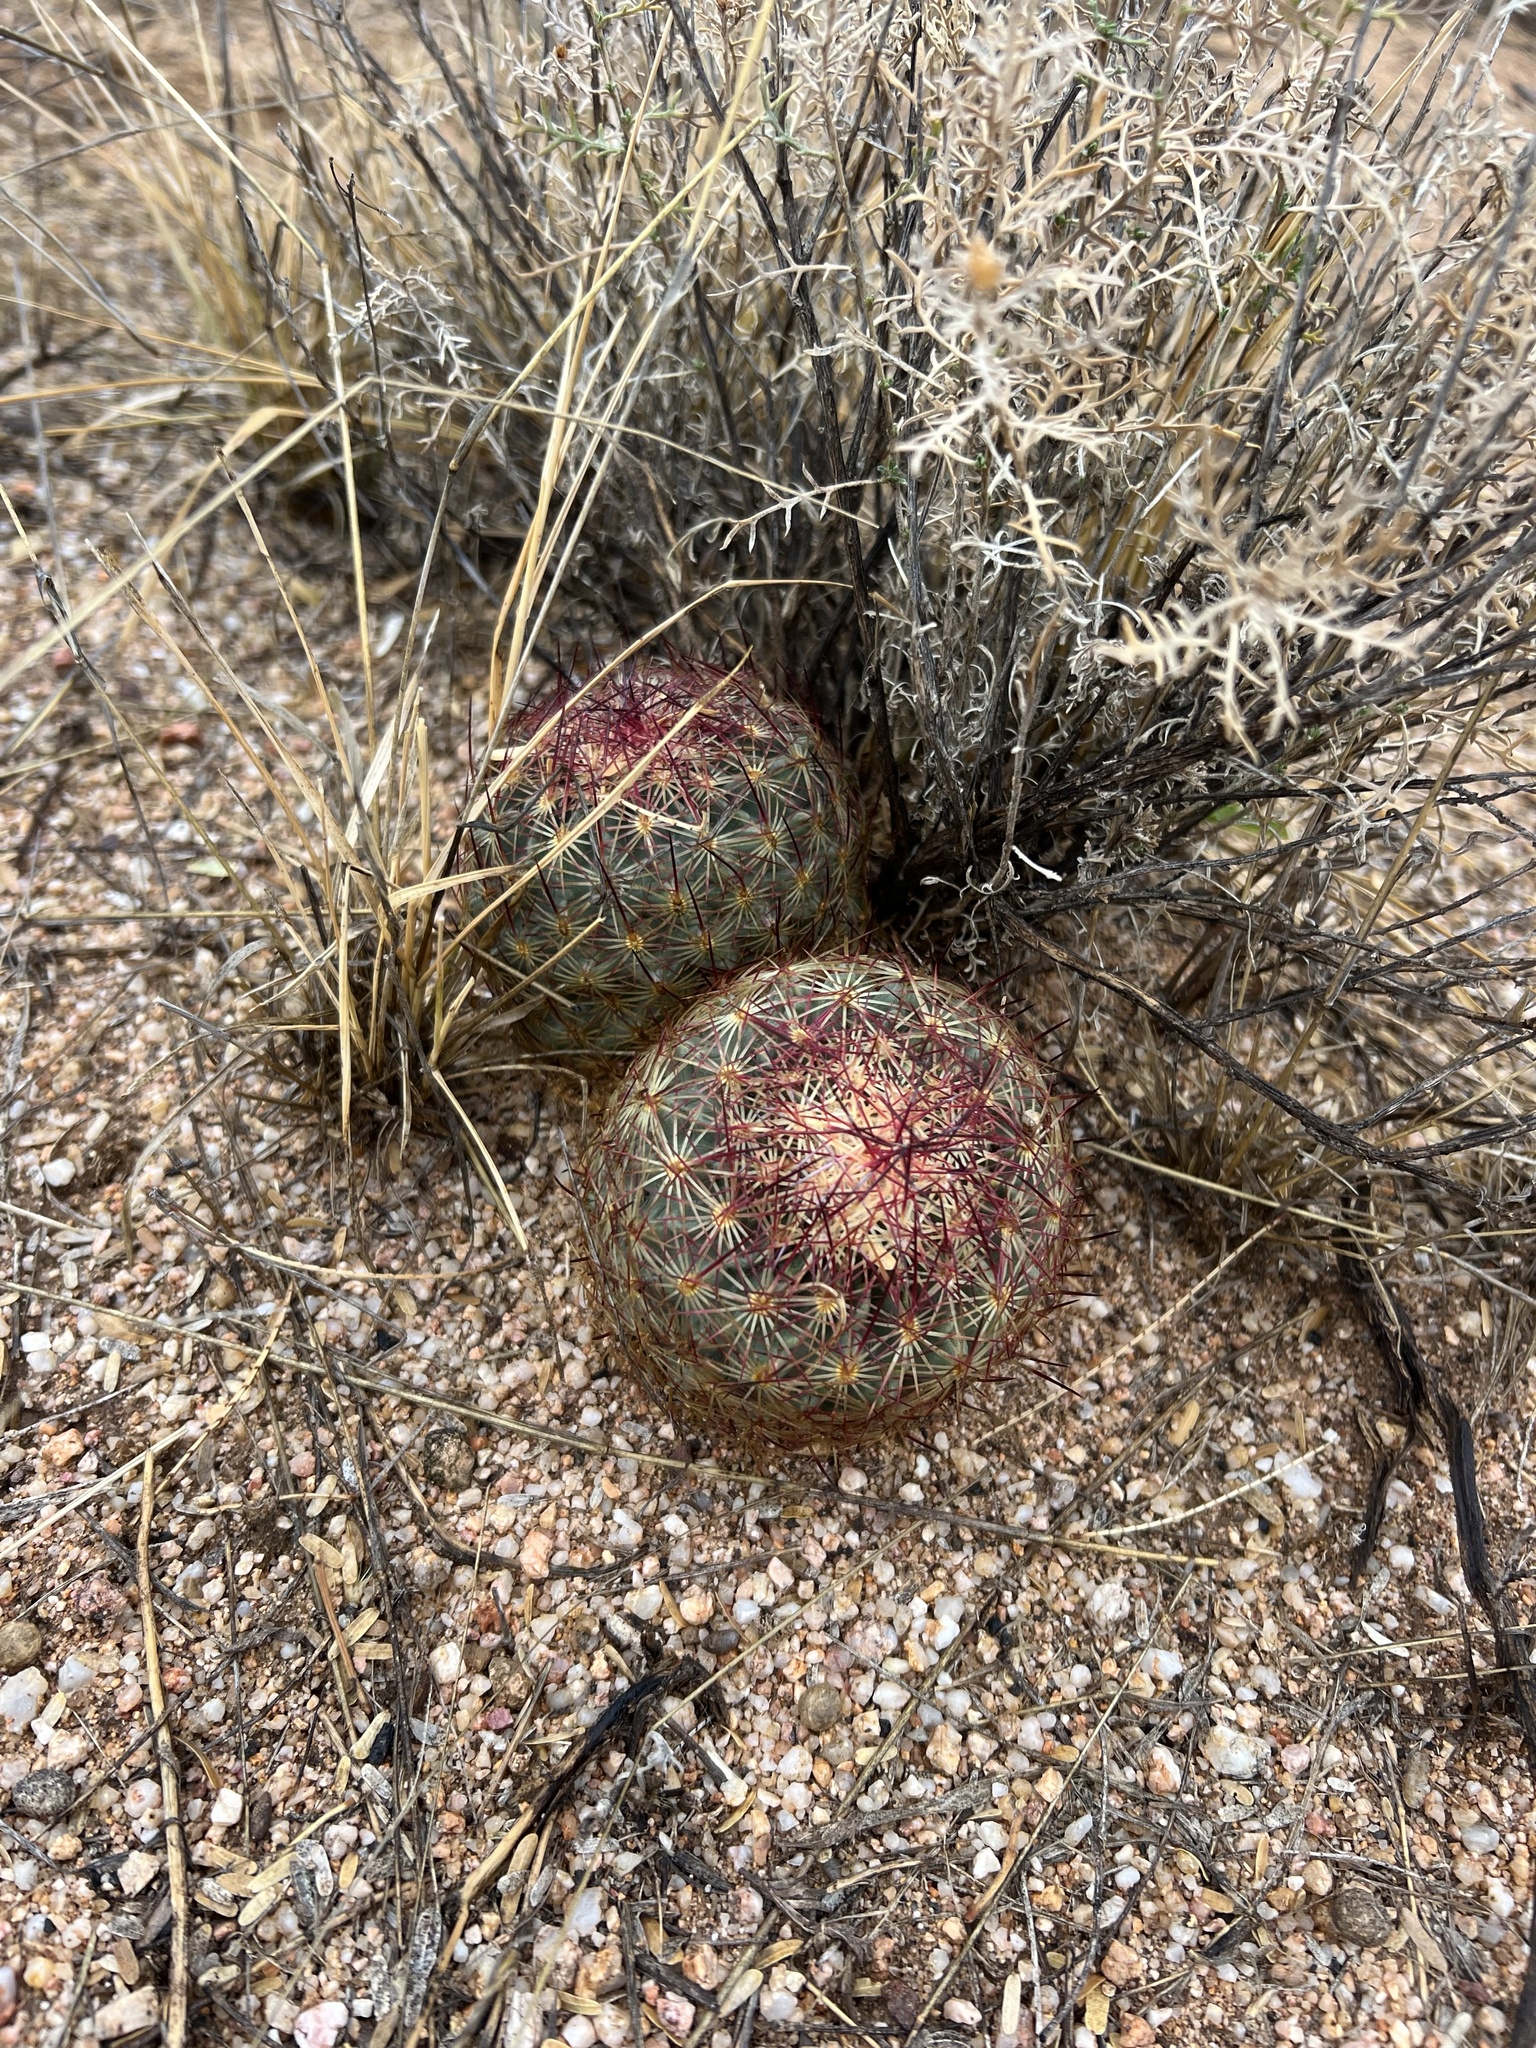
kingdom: Plantae
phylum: Tracheophyta
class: Magnoliopsida
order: Caryophyllales
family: Cactaceae
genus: Sclerocactus
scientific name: Sclerocactus johnsonii
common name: Eight-spine fishhook cactus
